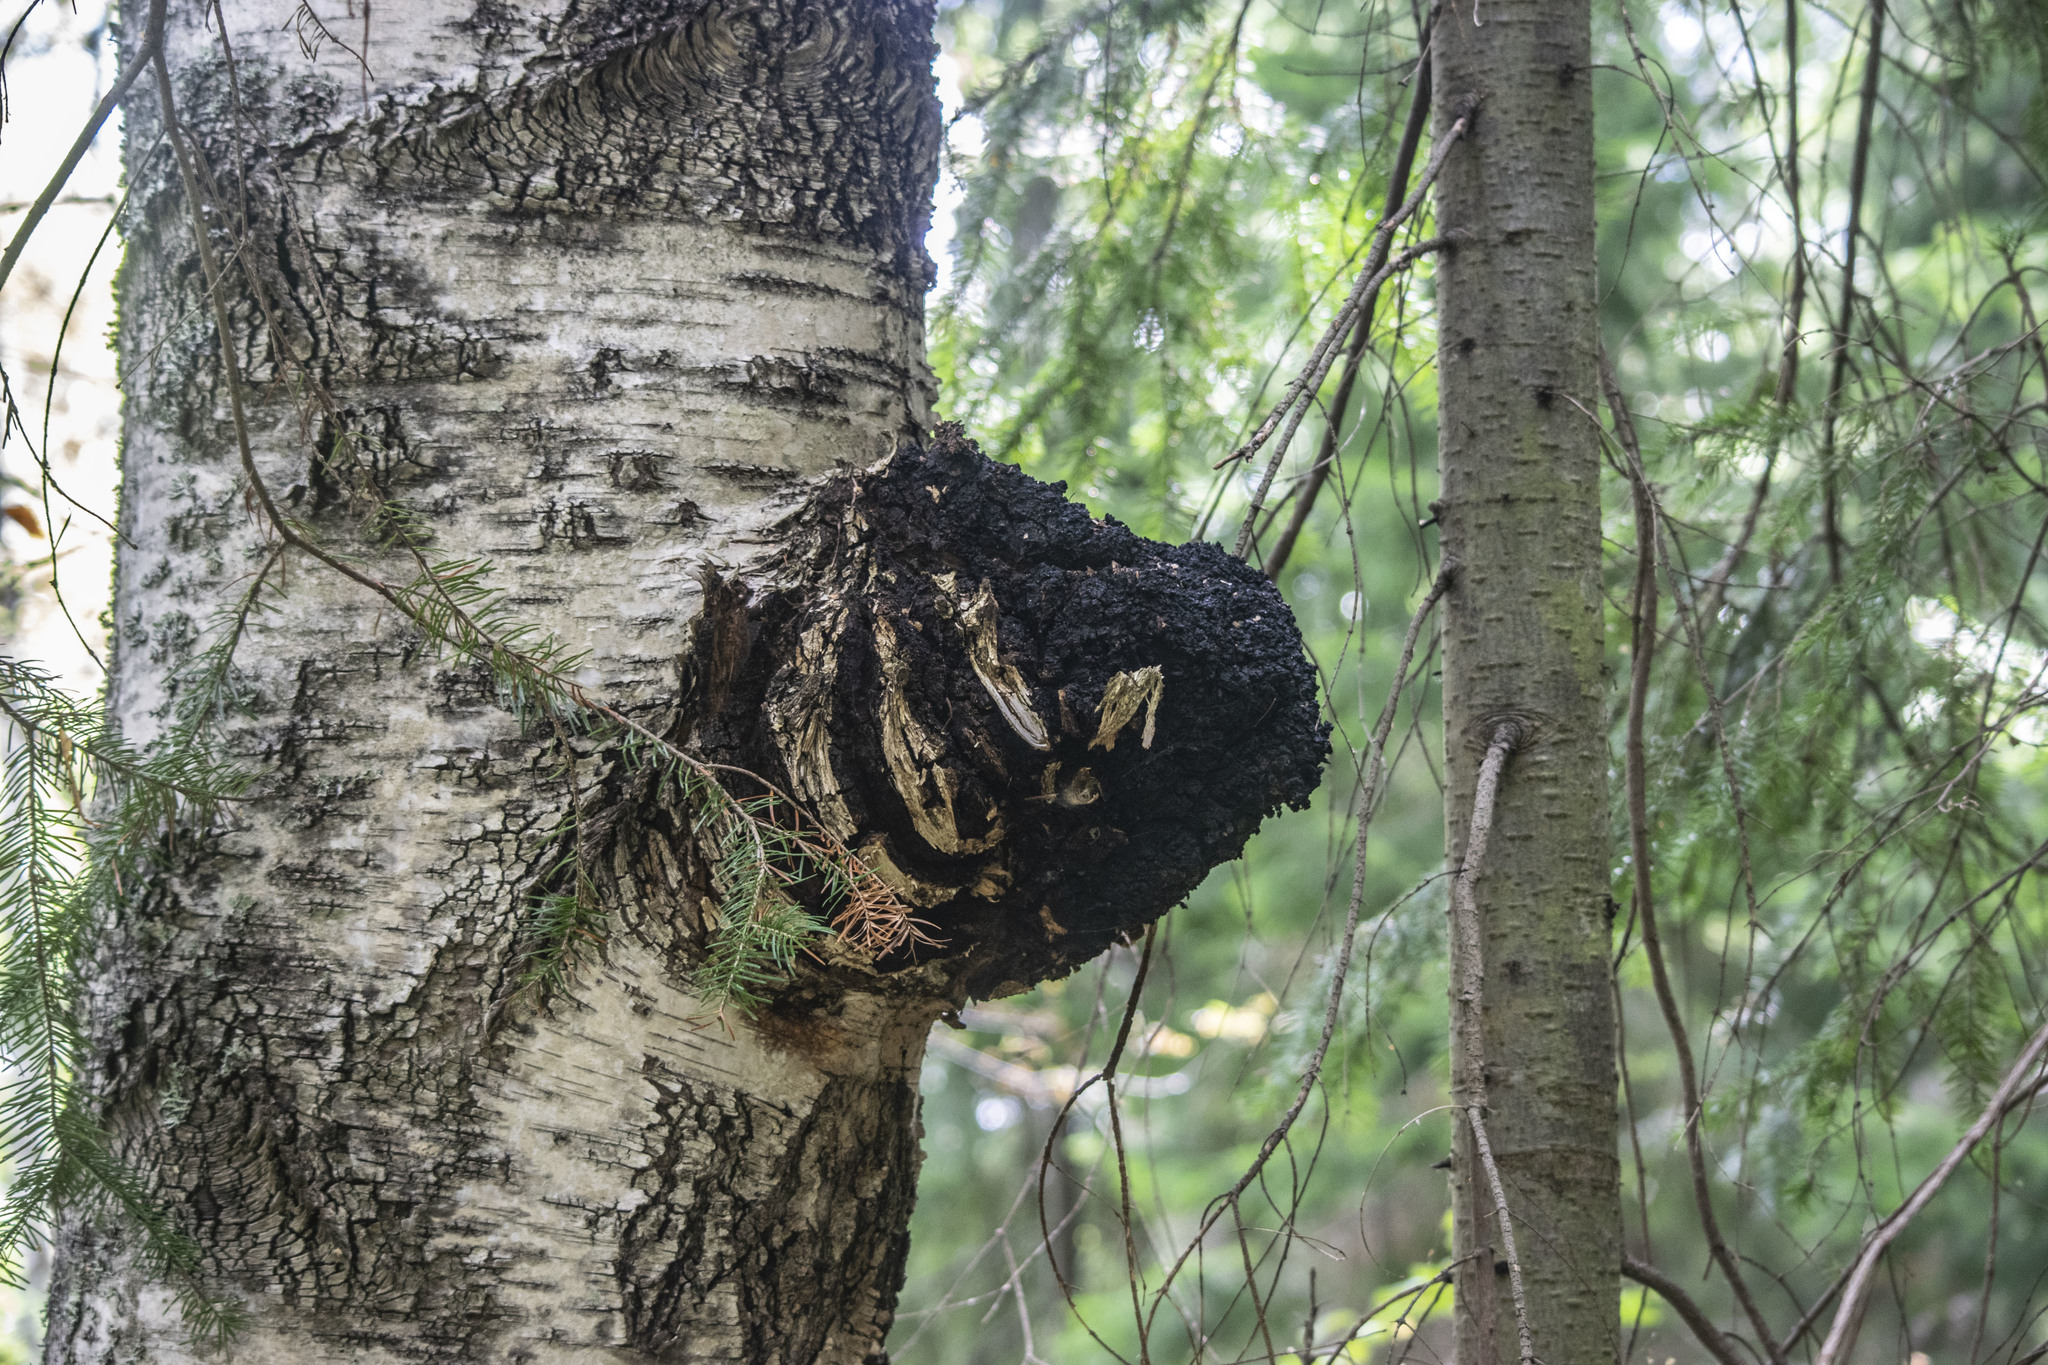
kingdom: Fungi
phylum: Basidiomycota
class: Agaricomycetes
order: Hymenochaetales
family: Hymenochaetaceae
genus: Inonotus
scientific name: Inonotus obliquus
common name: Chaga
